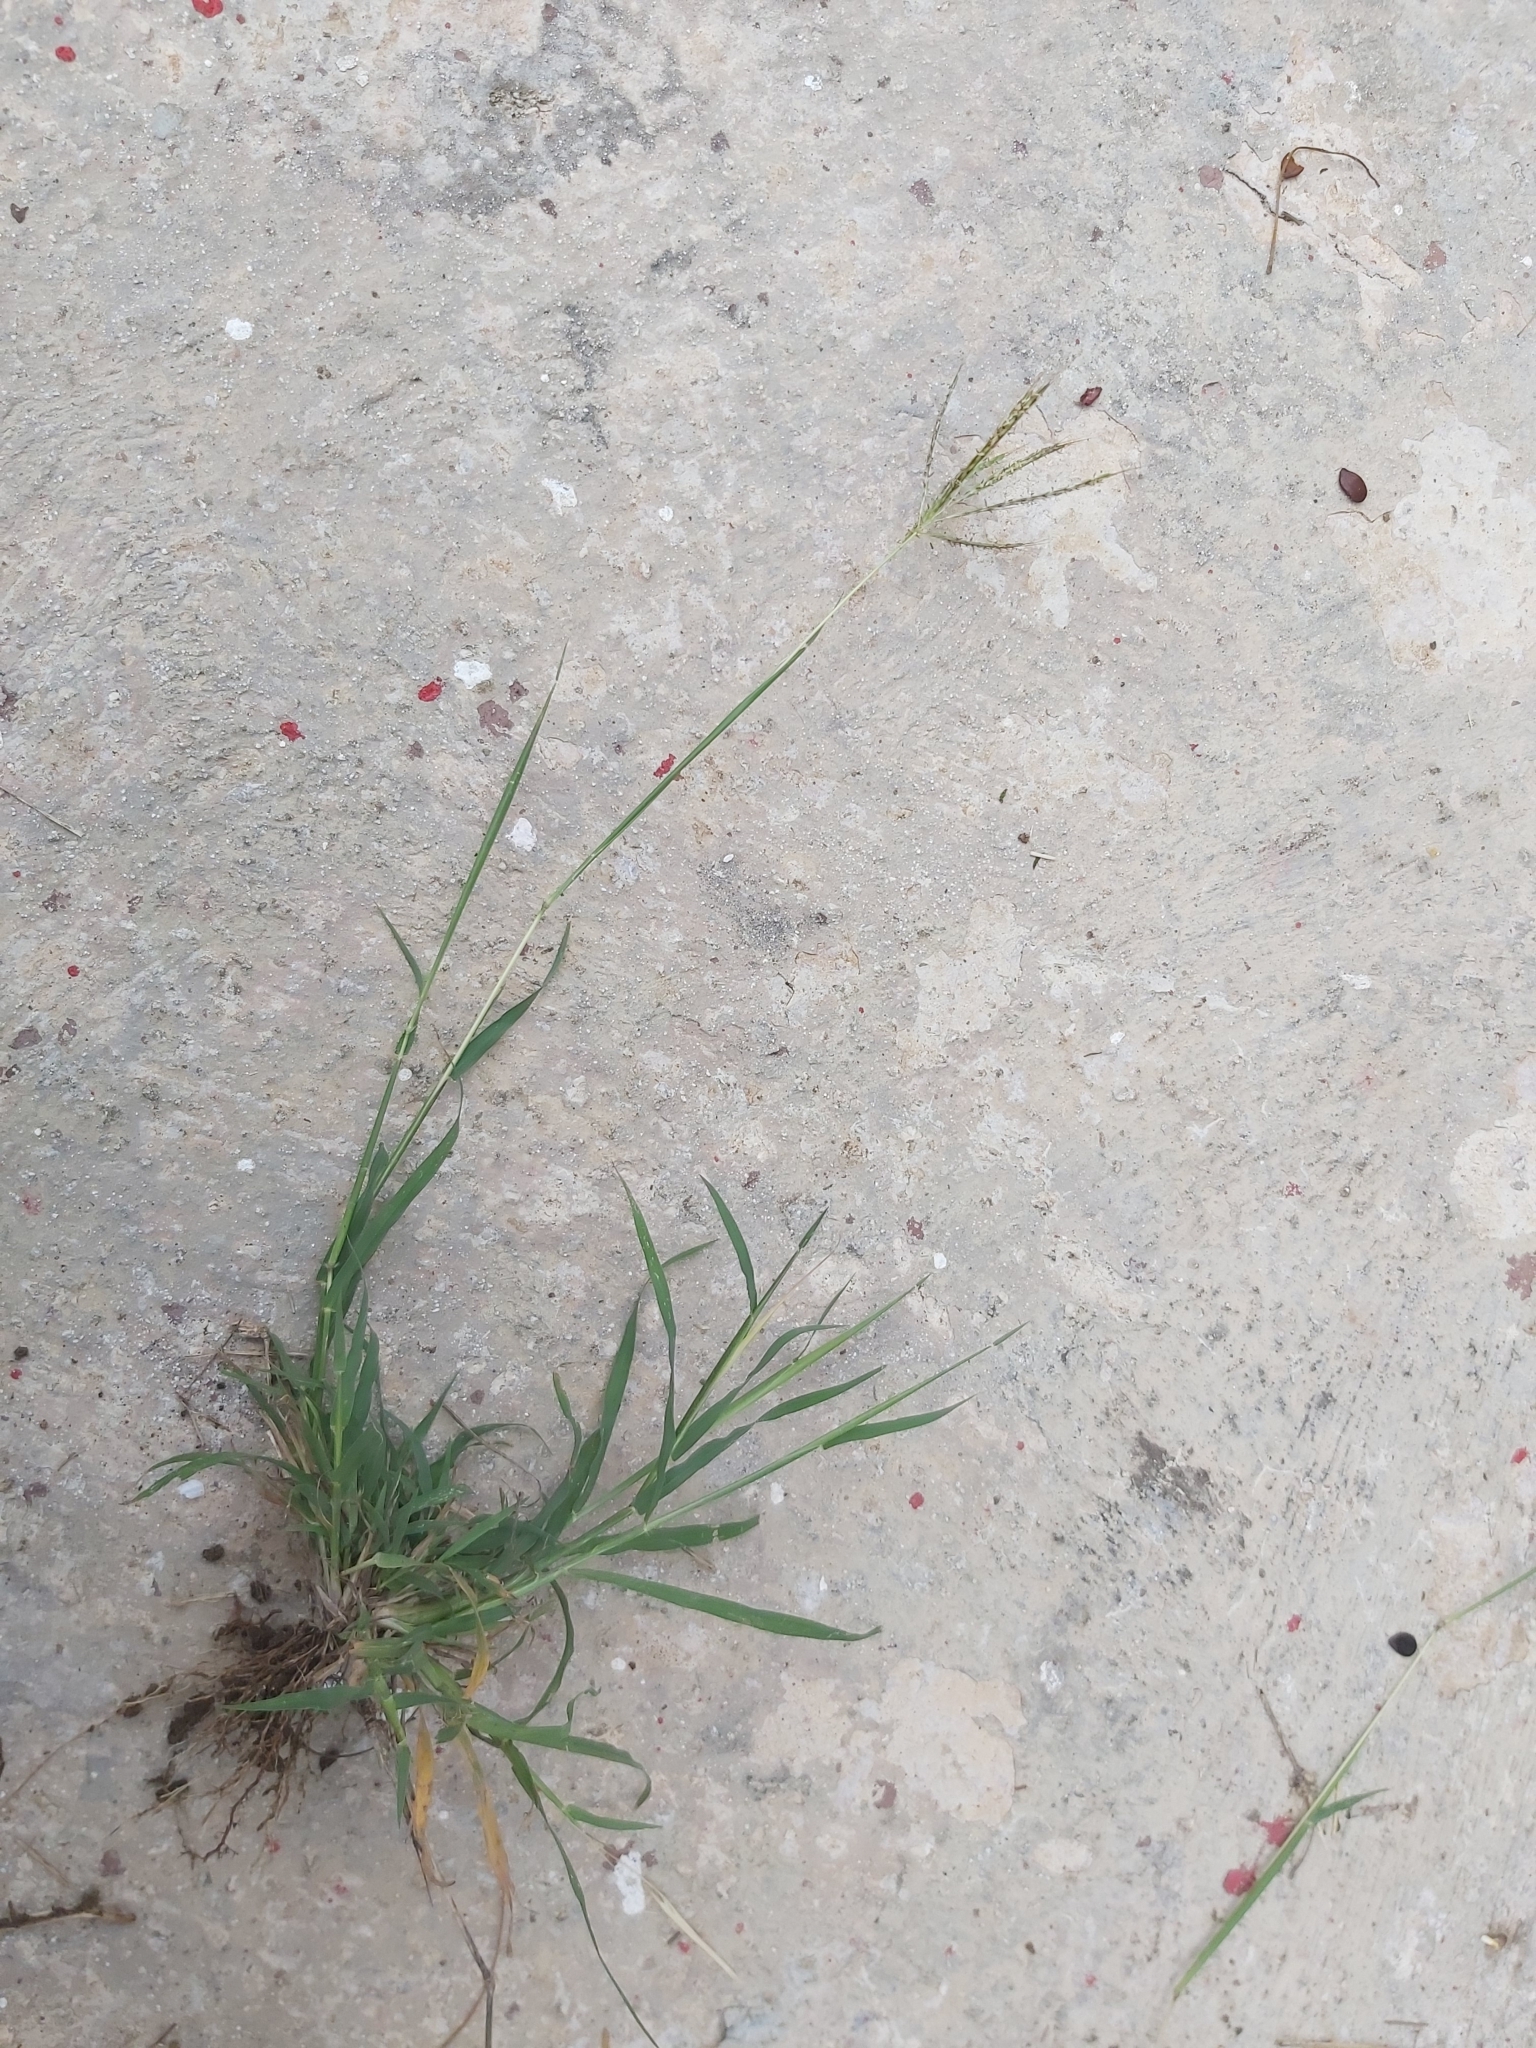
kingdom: Plantae
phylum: Tracheophyta
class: Liliopsida
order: Poales
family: Poaceae
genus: Bothriochloa
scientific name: Bothriochloa pertusa
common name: Pitted beardgrass
